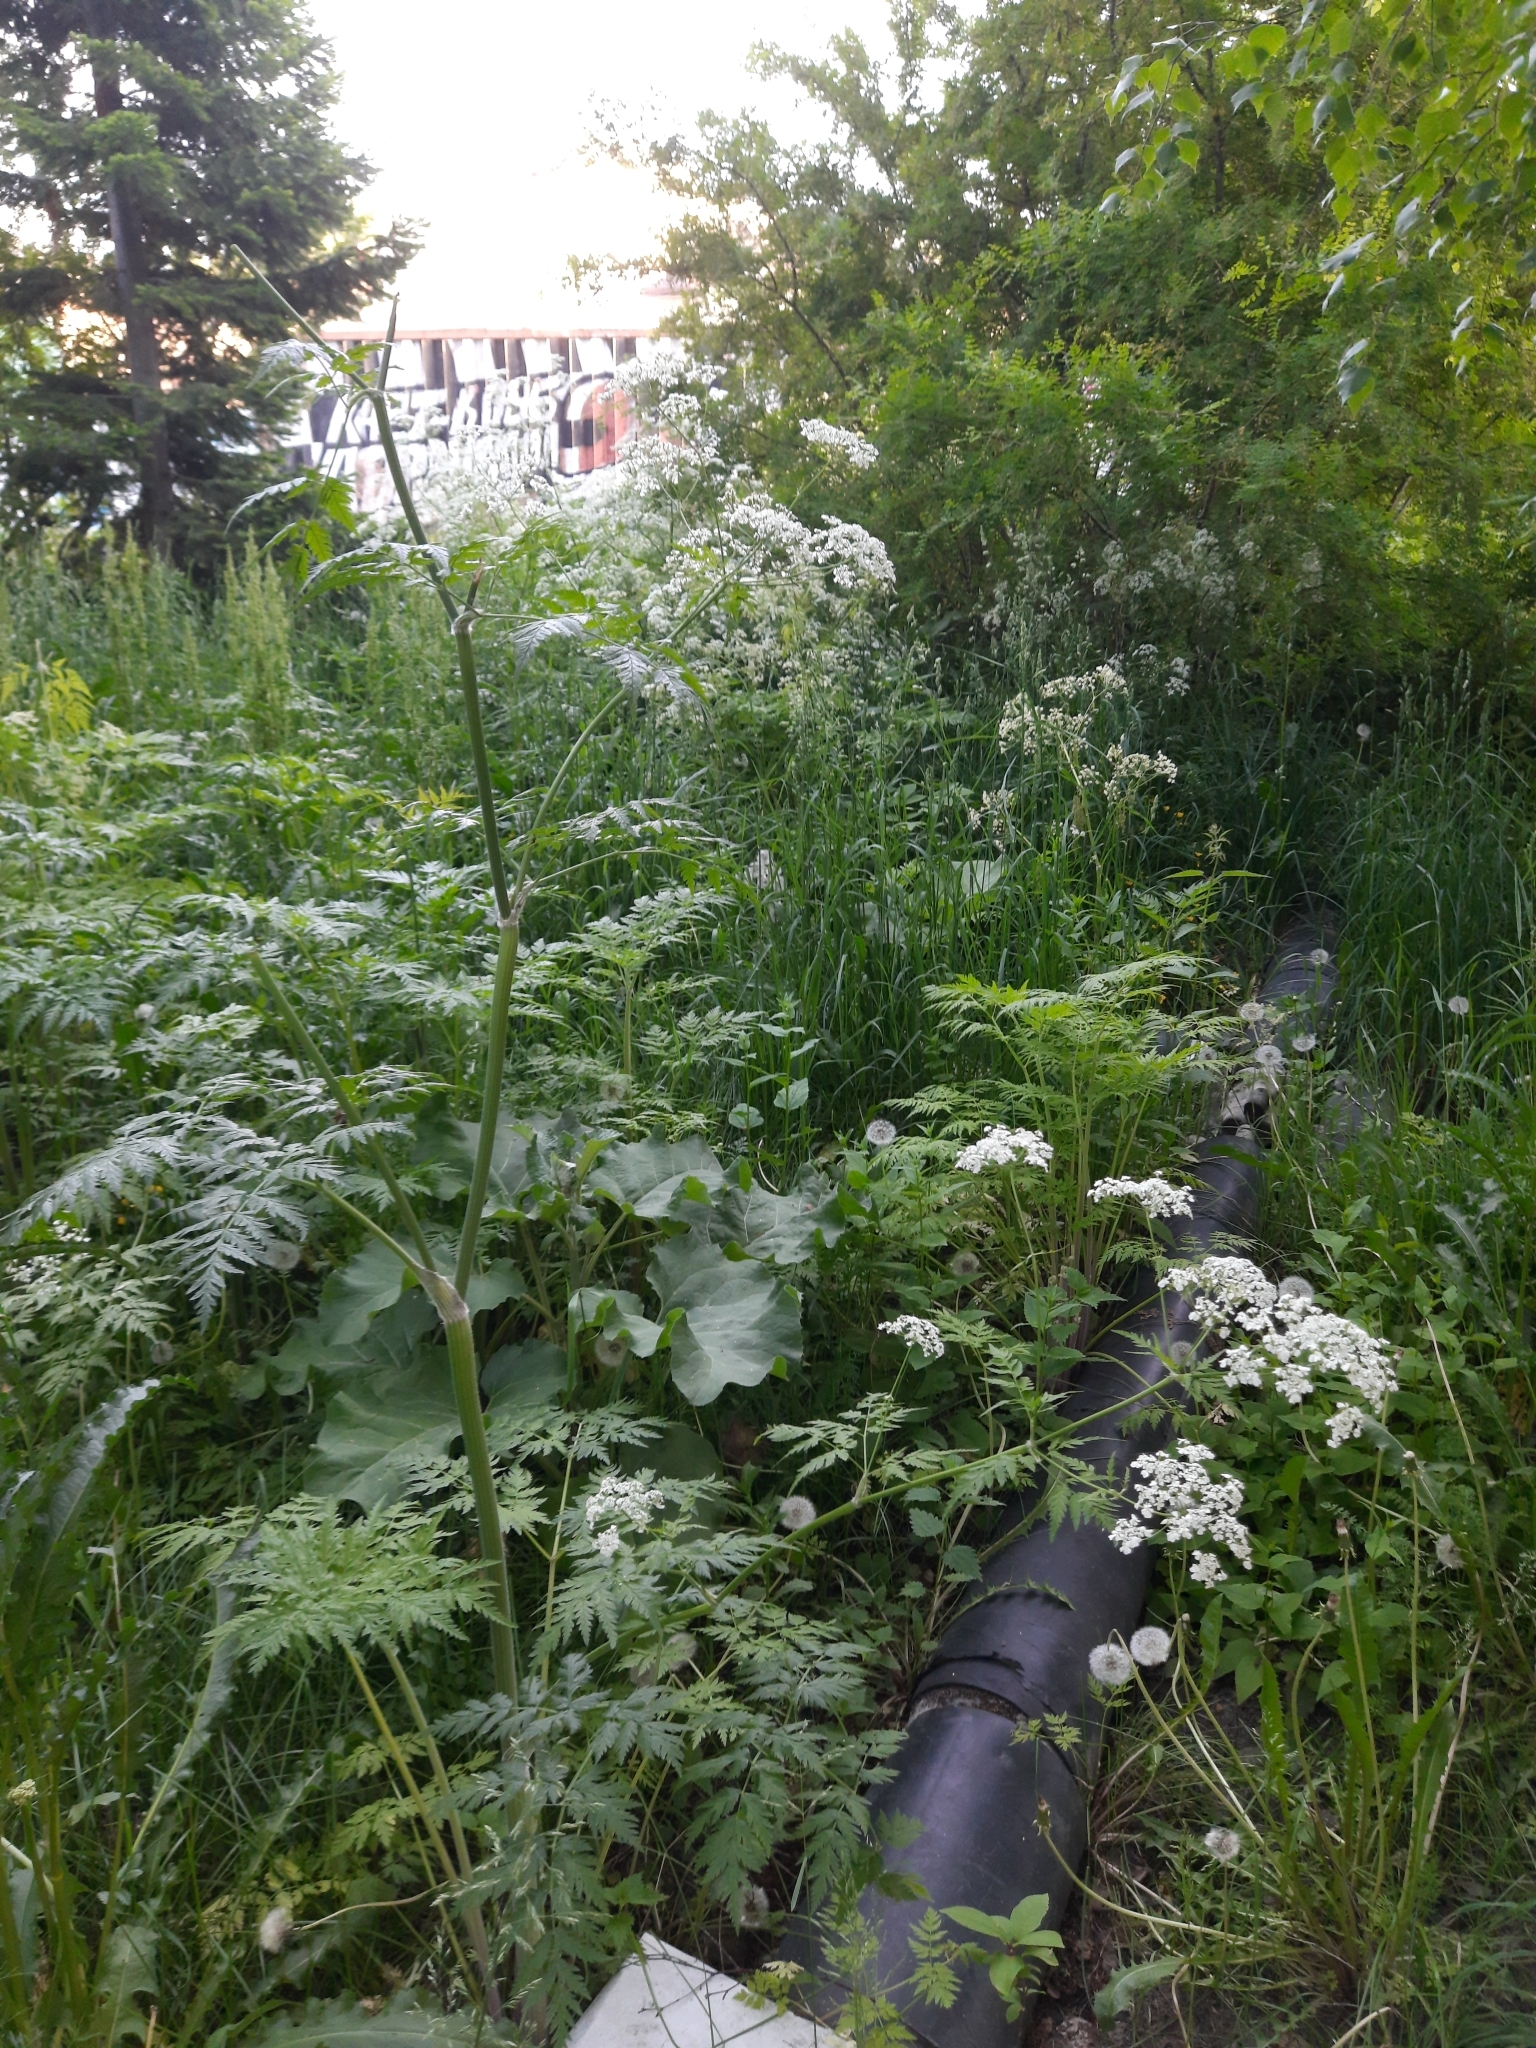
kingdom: Plantae
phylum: Tracheophyta
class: Magnoliopsida
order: Apiales
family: Apiaceae
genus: Anthriscus
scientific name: Anthriscus sylvestris
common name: Cow parsley
